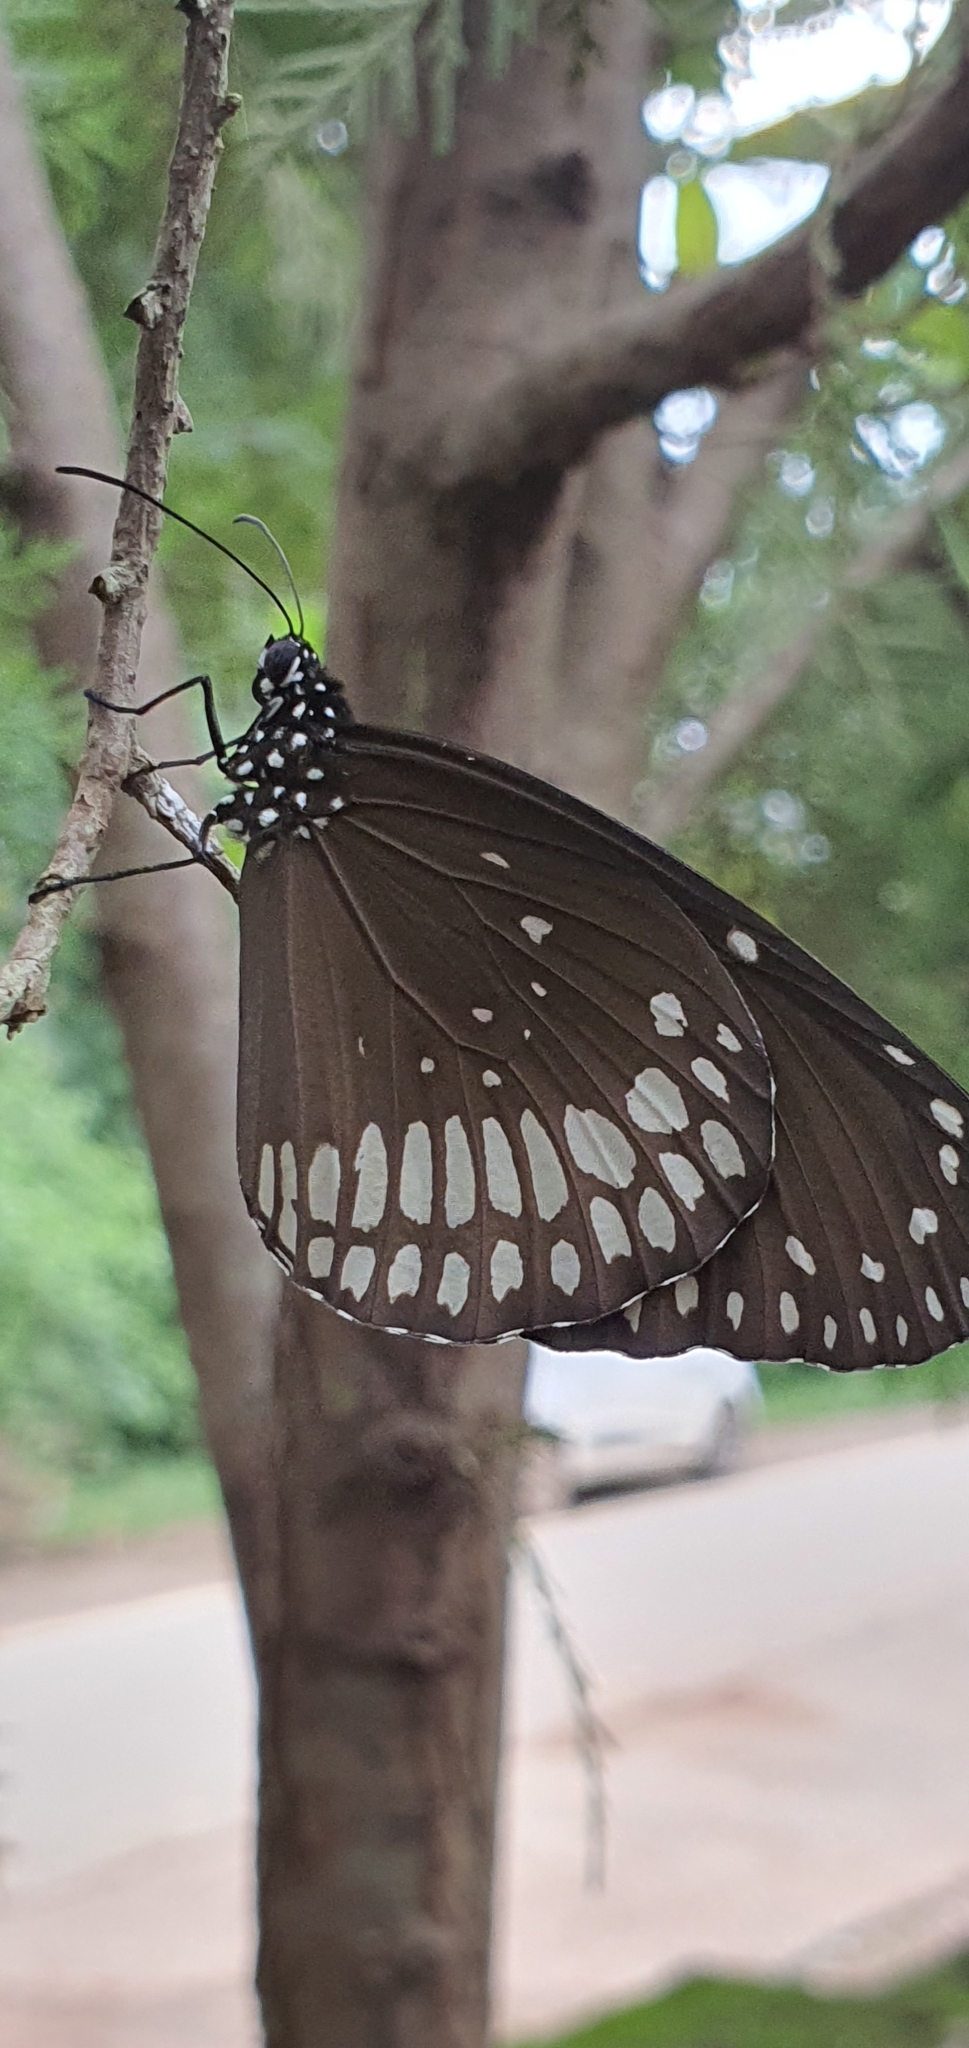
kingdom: Animalia
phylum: Arthropoda
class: Insecta
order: Lepidoptera
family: Nymphalidae
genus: Euploea
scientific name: Euploea core
